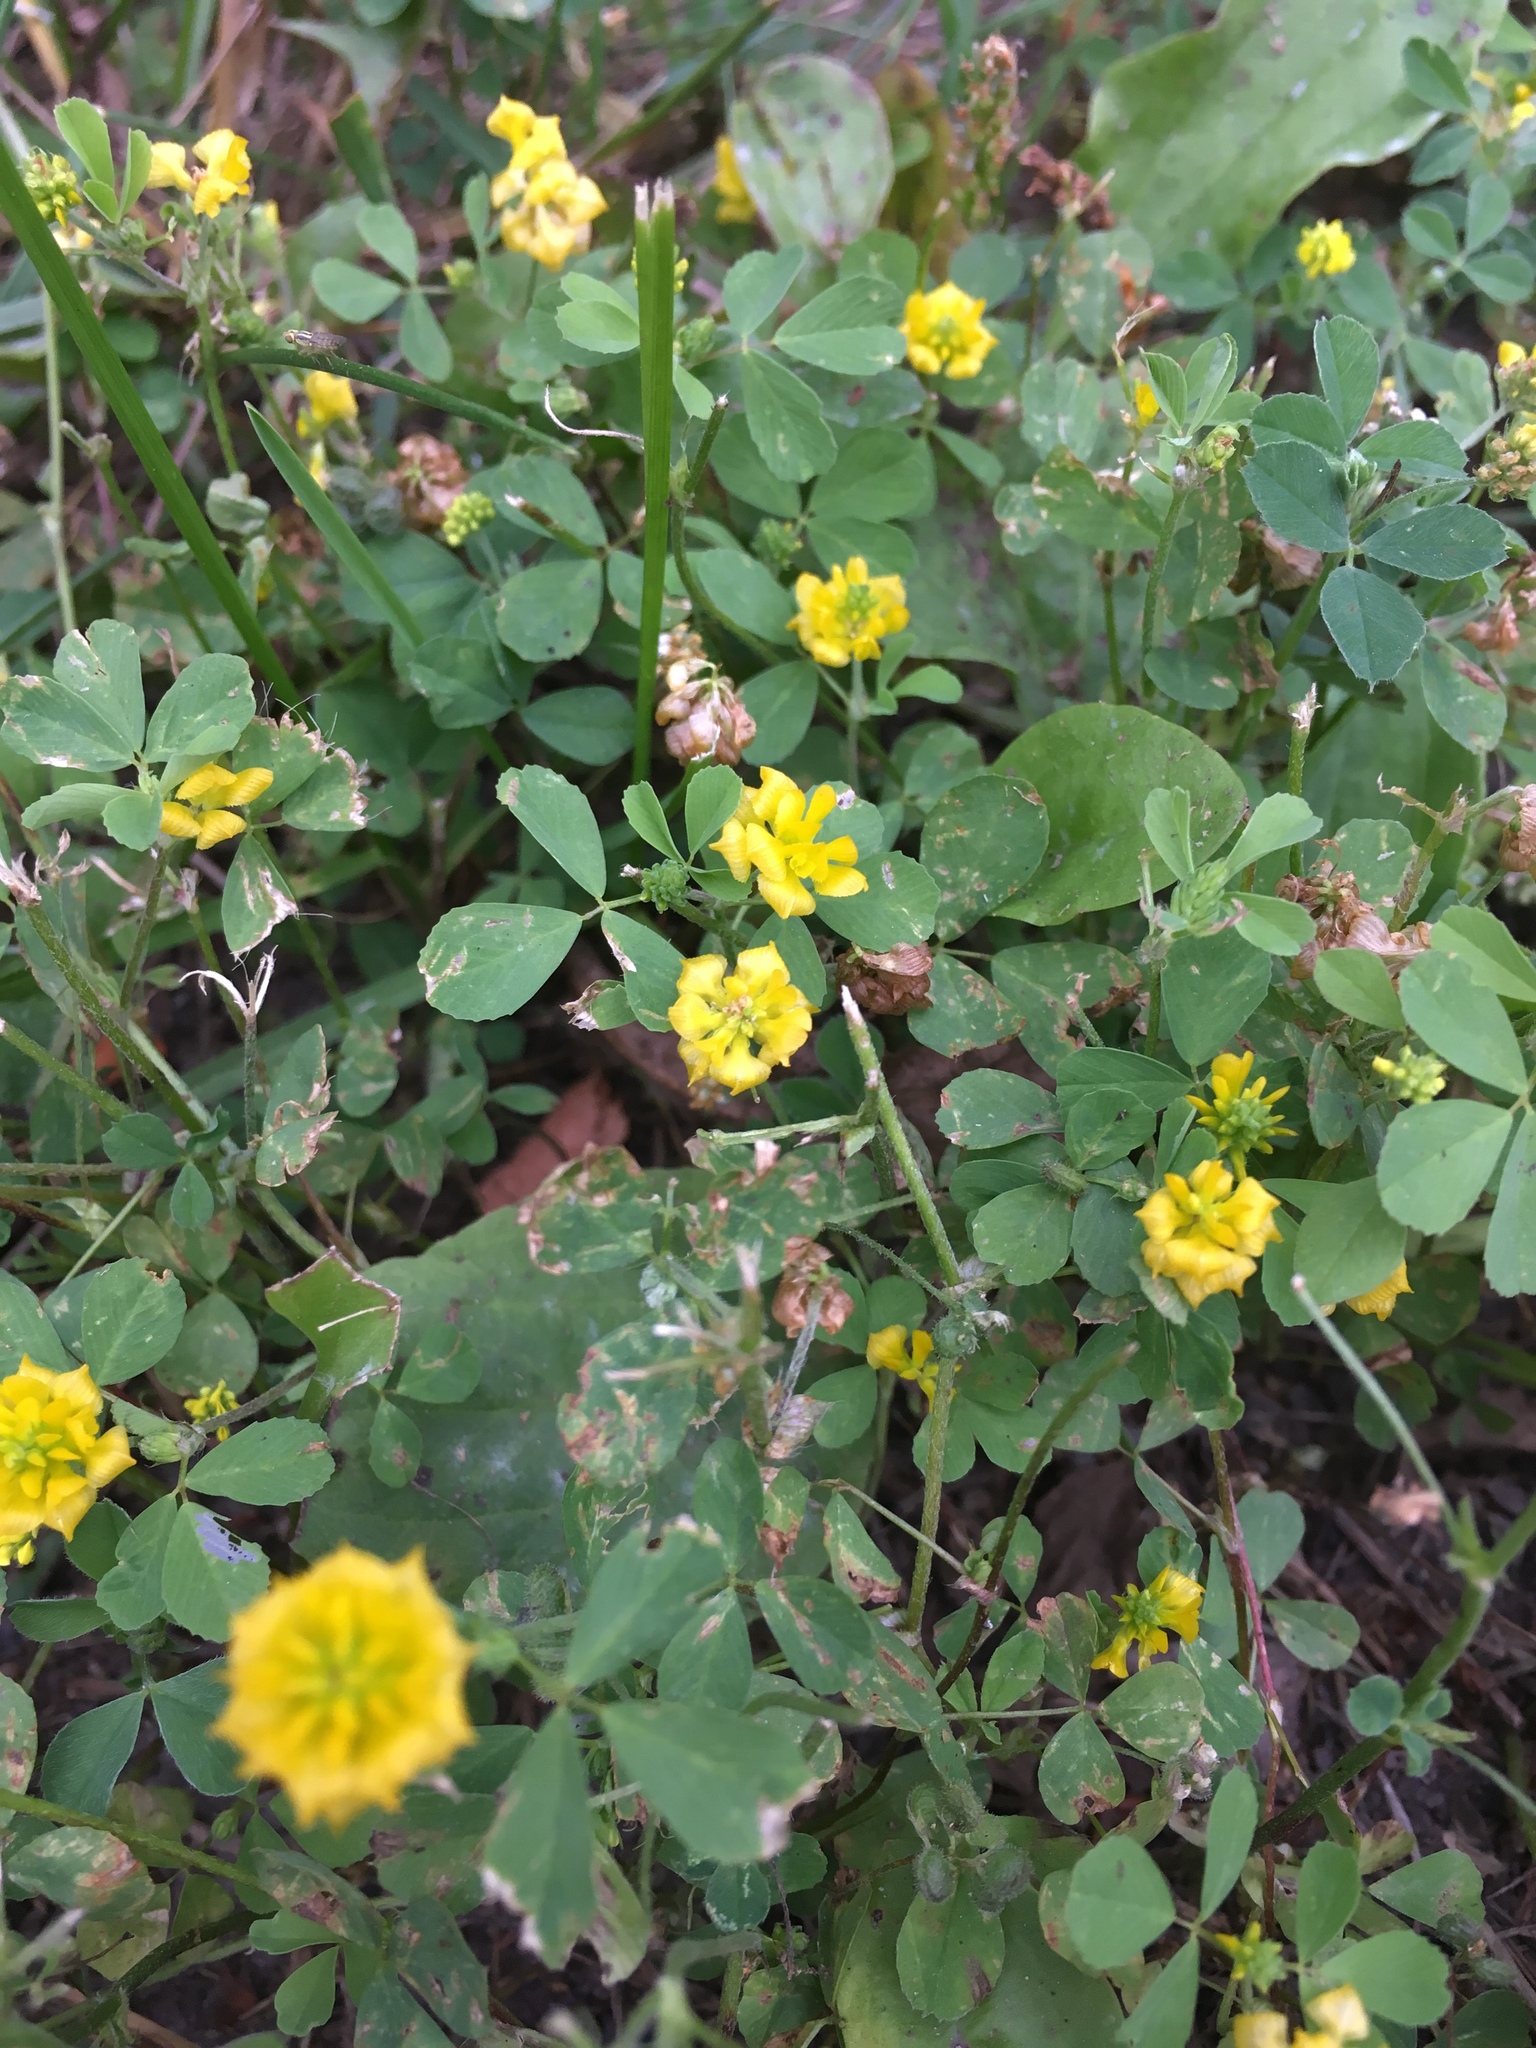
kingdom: Plantae
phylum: Tracheophyta
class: Magnoliopsida
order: Fabales
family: Fabaceae
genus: Trifolium
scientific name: Trifolium campestre
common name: Field clover
